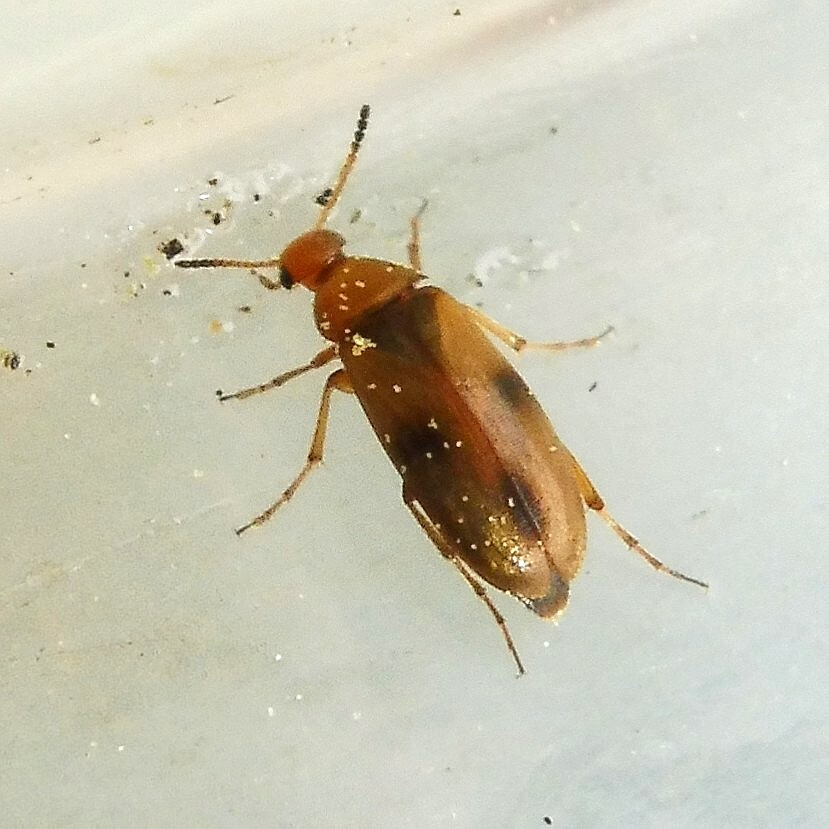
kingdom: Animalia
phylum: Arthropoda
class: Insecta
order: Coleoptera
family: Scraptiidae
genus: Anaspis
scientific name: Anaspis maculata
